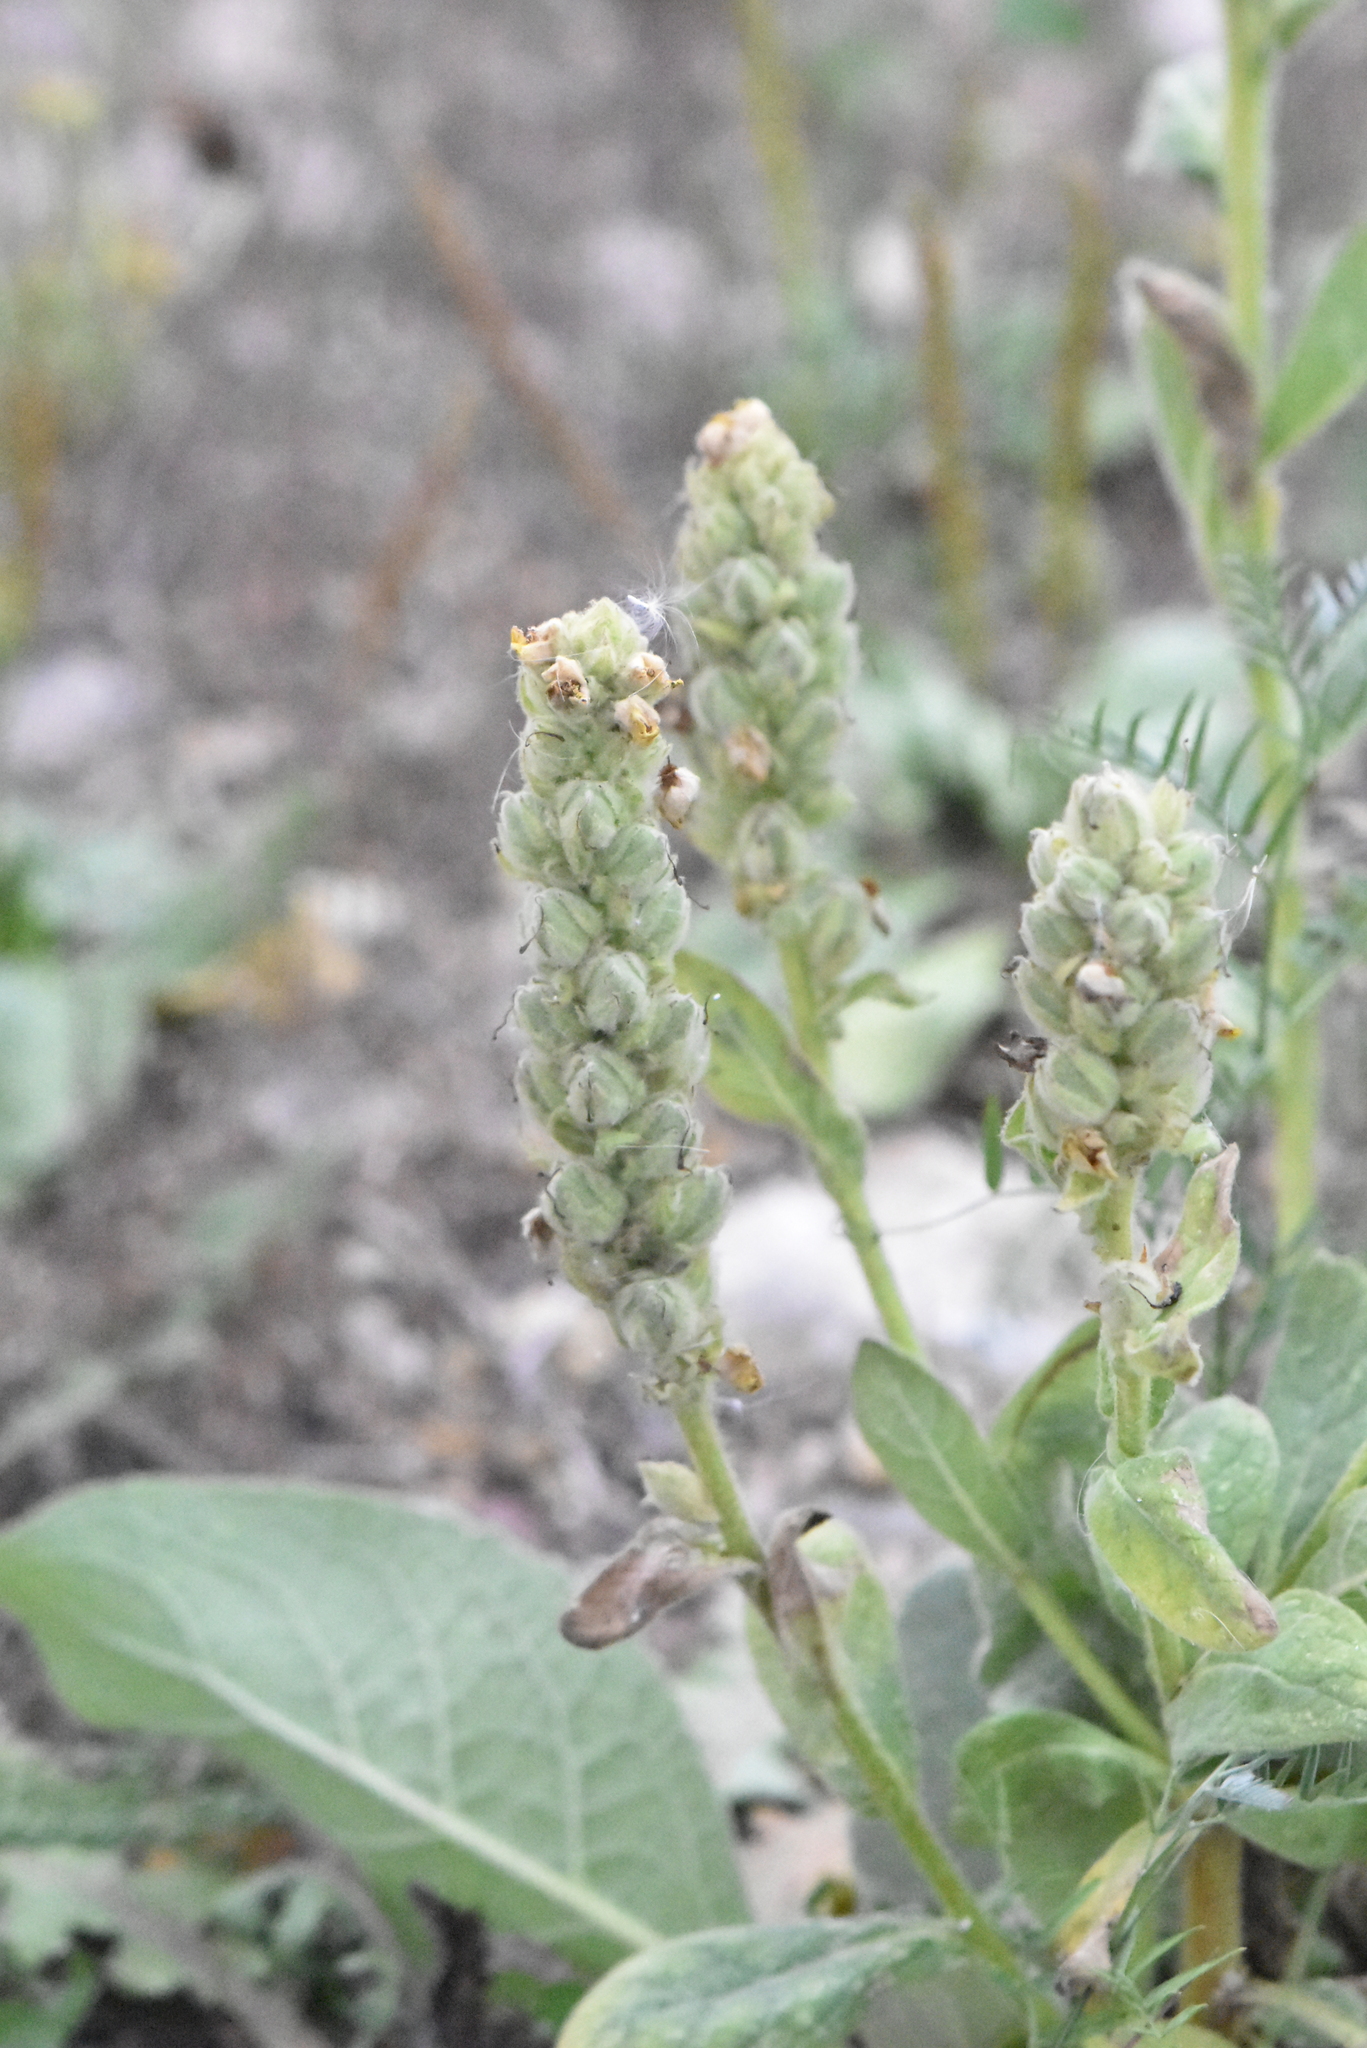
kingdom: Plantae
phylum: Tracheophyta
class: Magnoliopsida
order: Lamiales
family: Scrophulariaceae
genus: Verbascum
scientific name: Verbascum thapsus
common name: Common mullein
